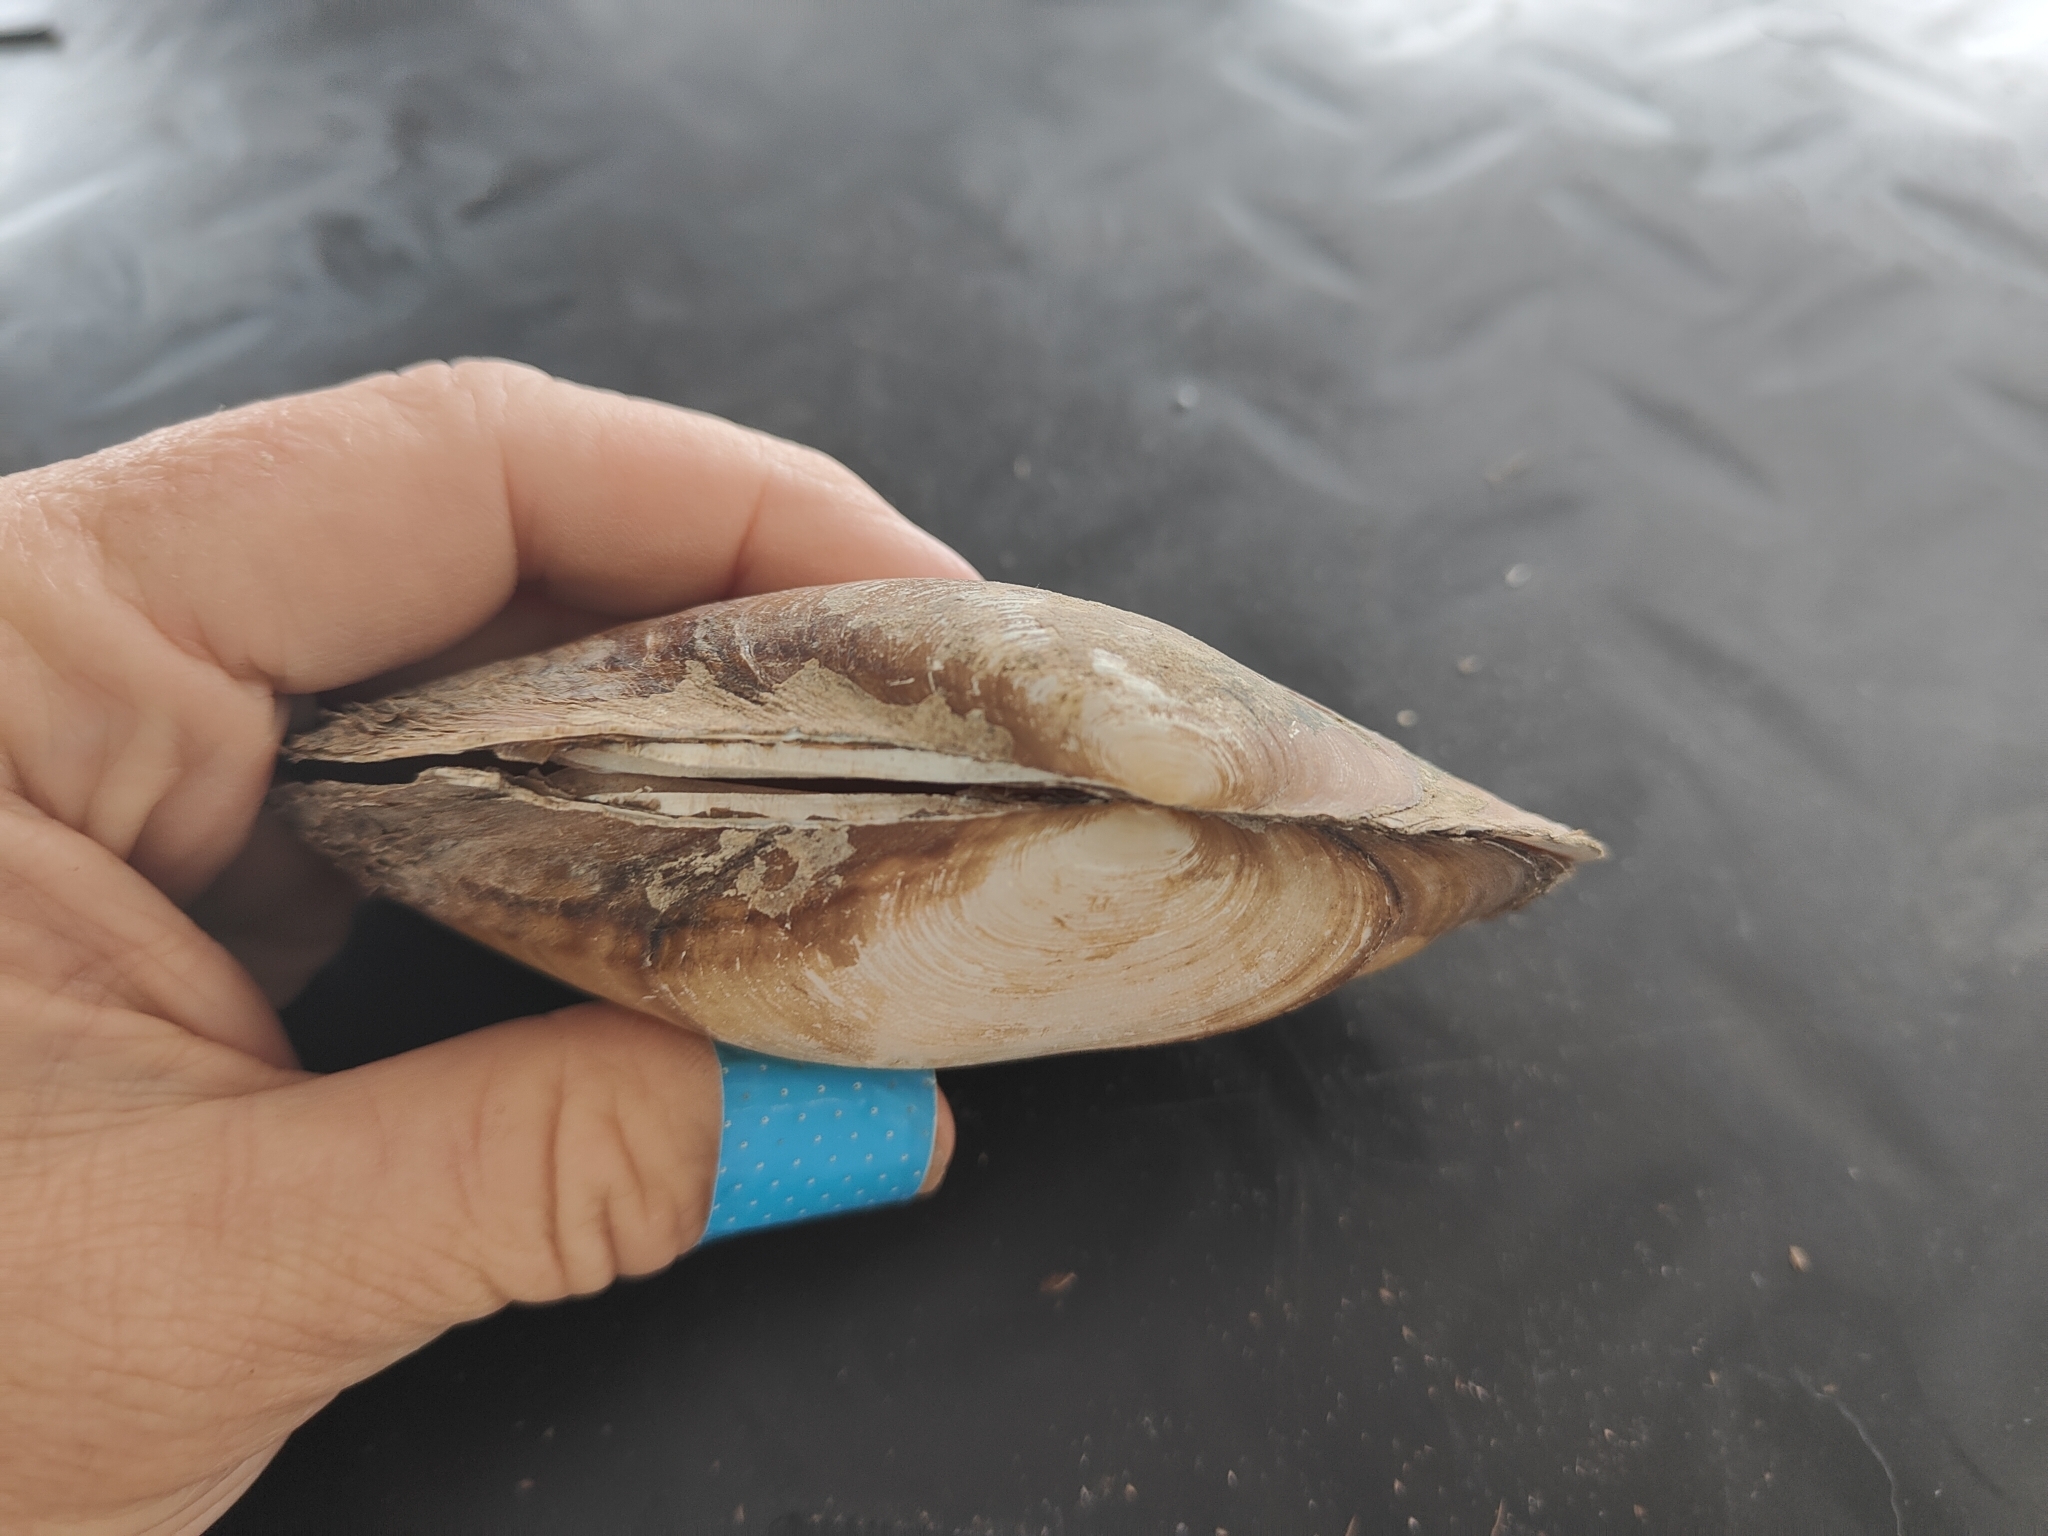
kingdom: Animalia
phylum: Mollusca
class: Bivalvia
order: Unionida
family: Unionidae
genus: Potamilus
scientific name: Potamilus fragilis
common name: Fragile papershell
